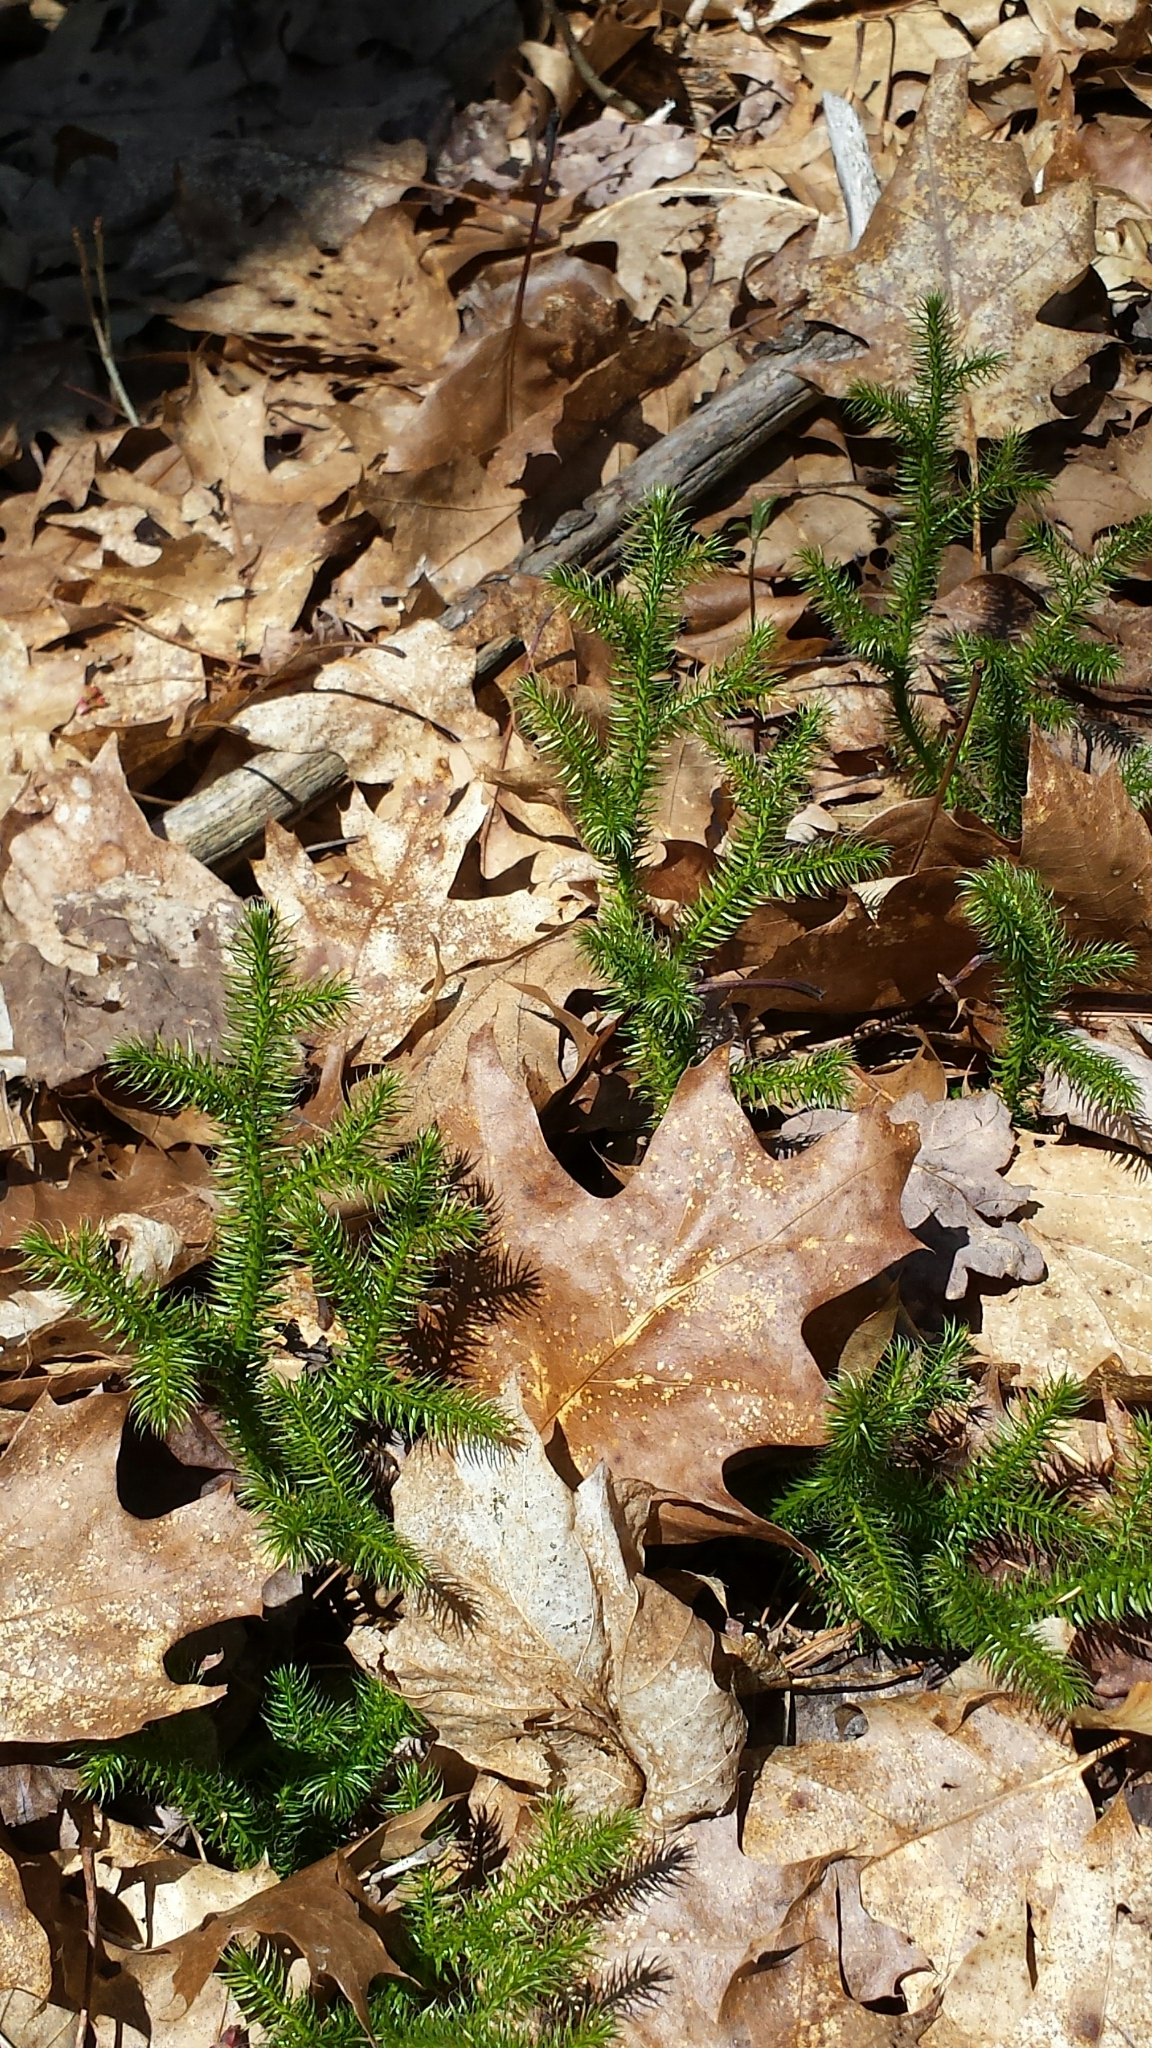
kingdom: Plantae
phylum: Tracheophyta
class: Lycopodiopsida
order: Lycopodiales
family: Lycopodiaceae
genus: Lycopodium
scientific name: Lycopodium clavatum
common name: Stag's-horn clubmoss
